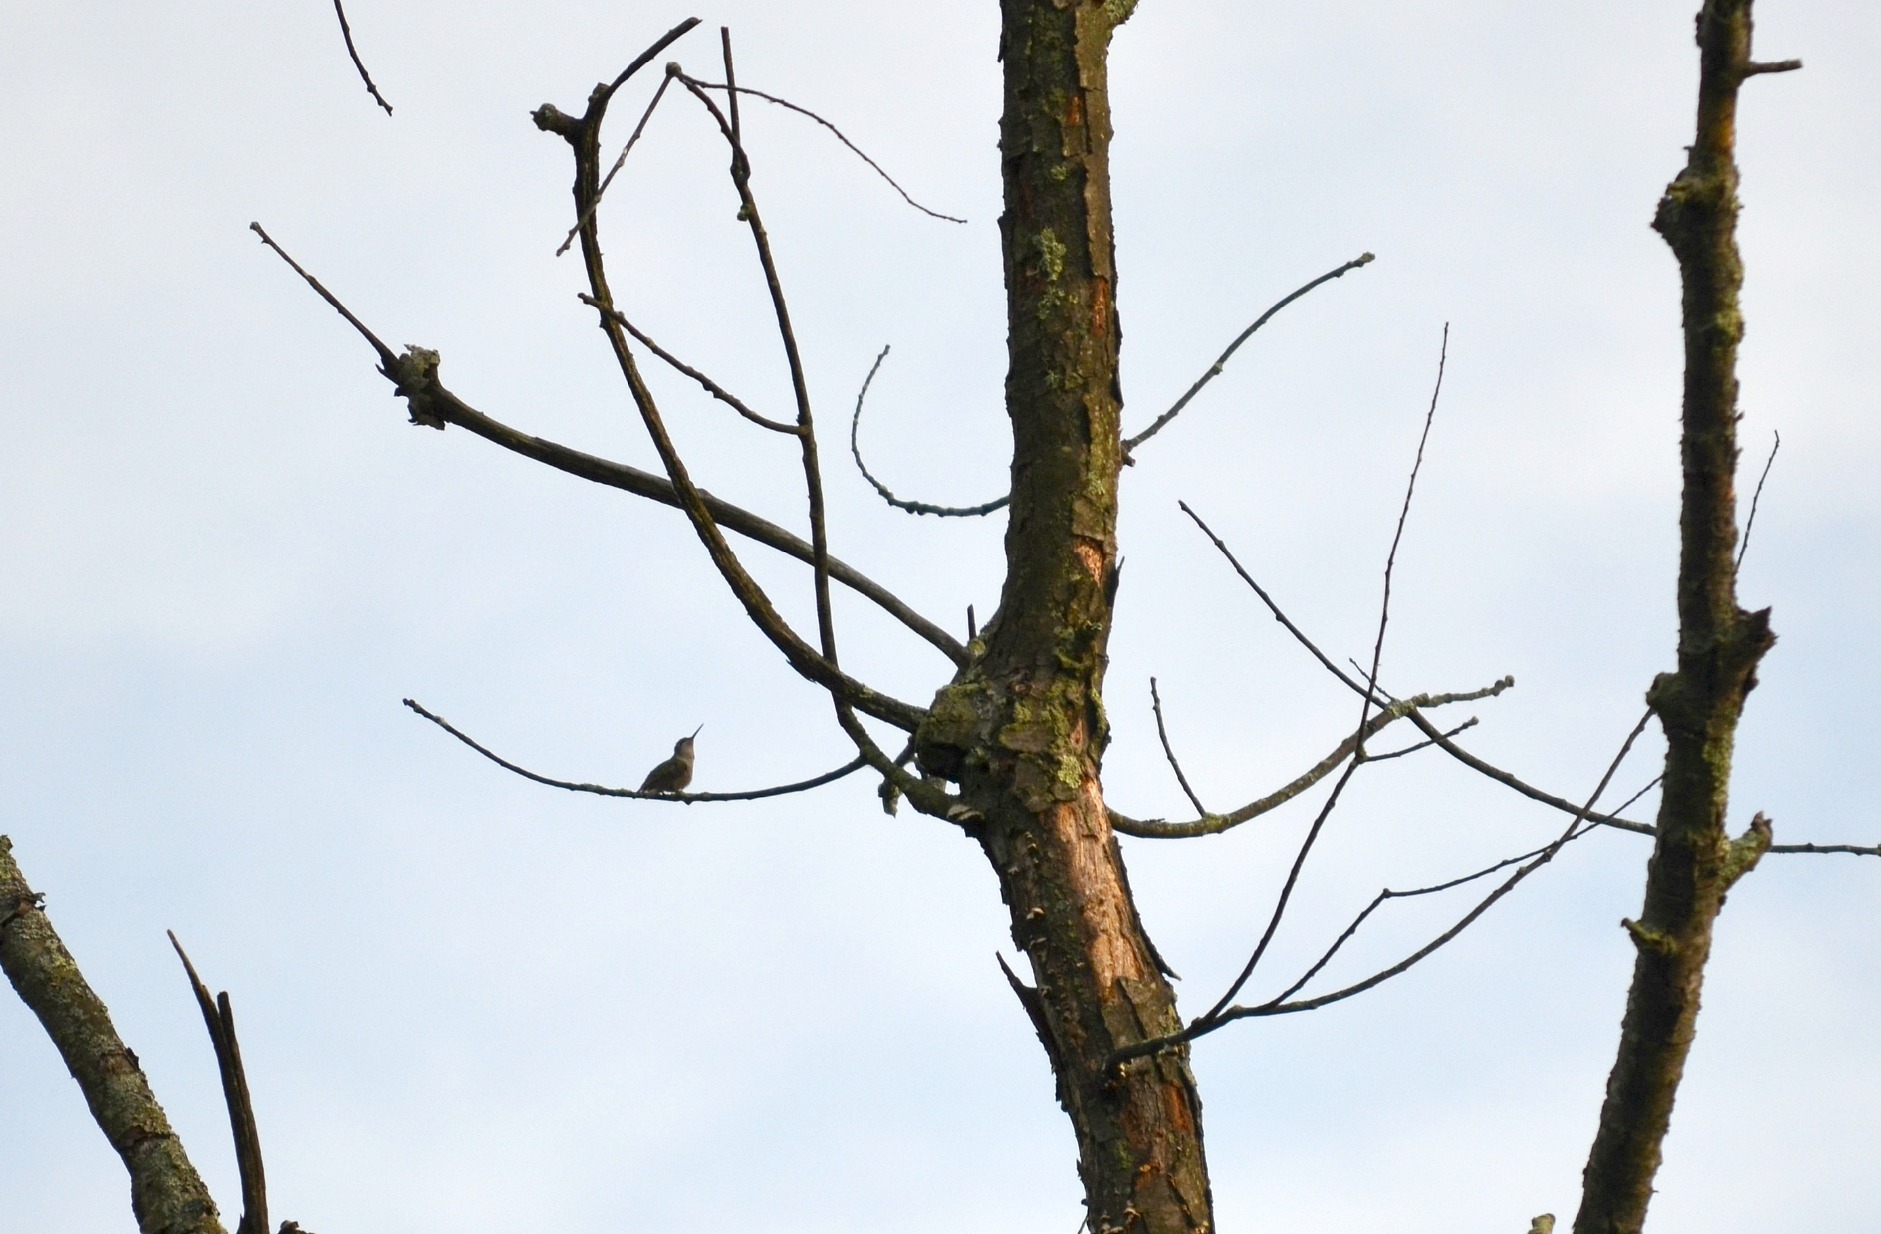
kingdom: Animalia
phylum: Chordata
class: Aves
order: Apodiformes
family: Trochilidae
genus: Archilochus
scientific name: Archilochus colubris
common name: Ruby-throated hummingbird
